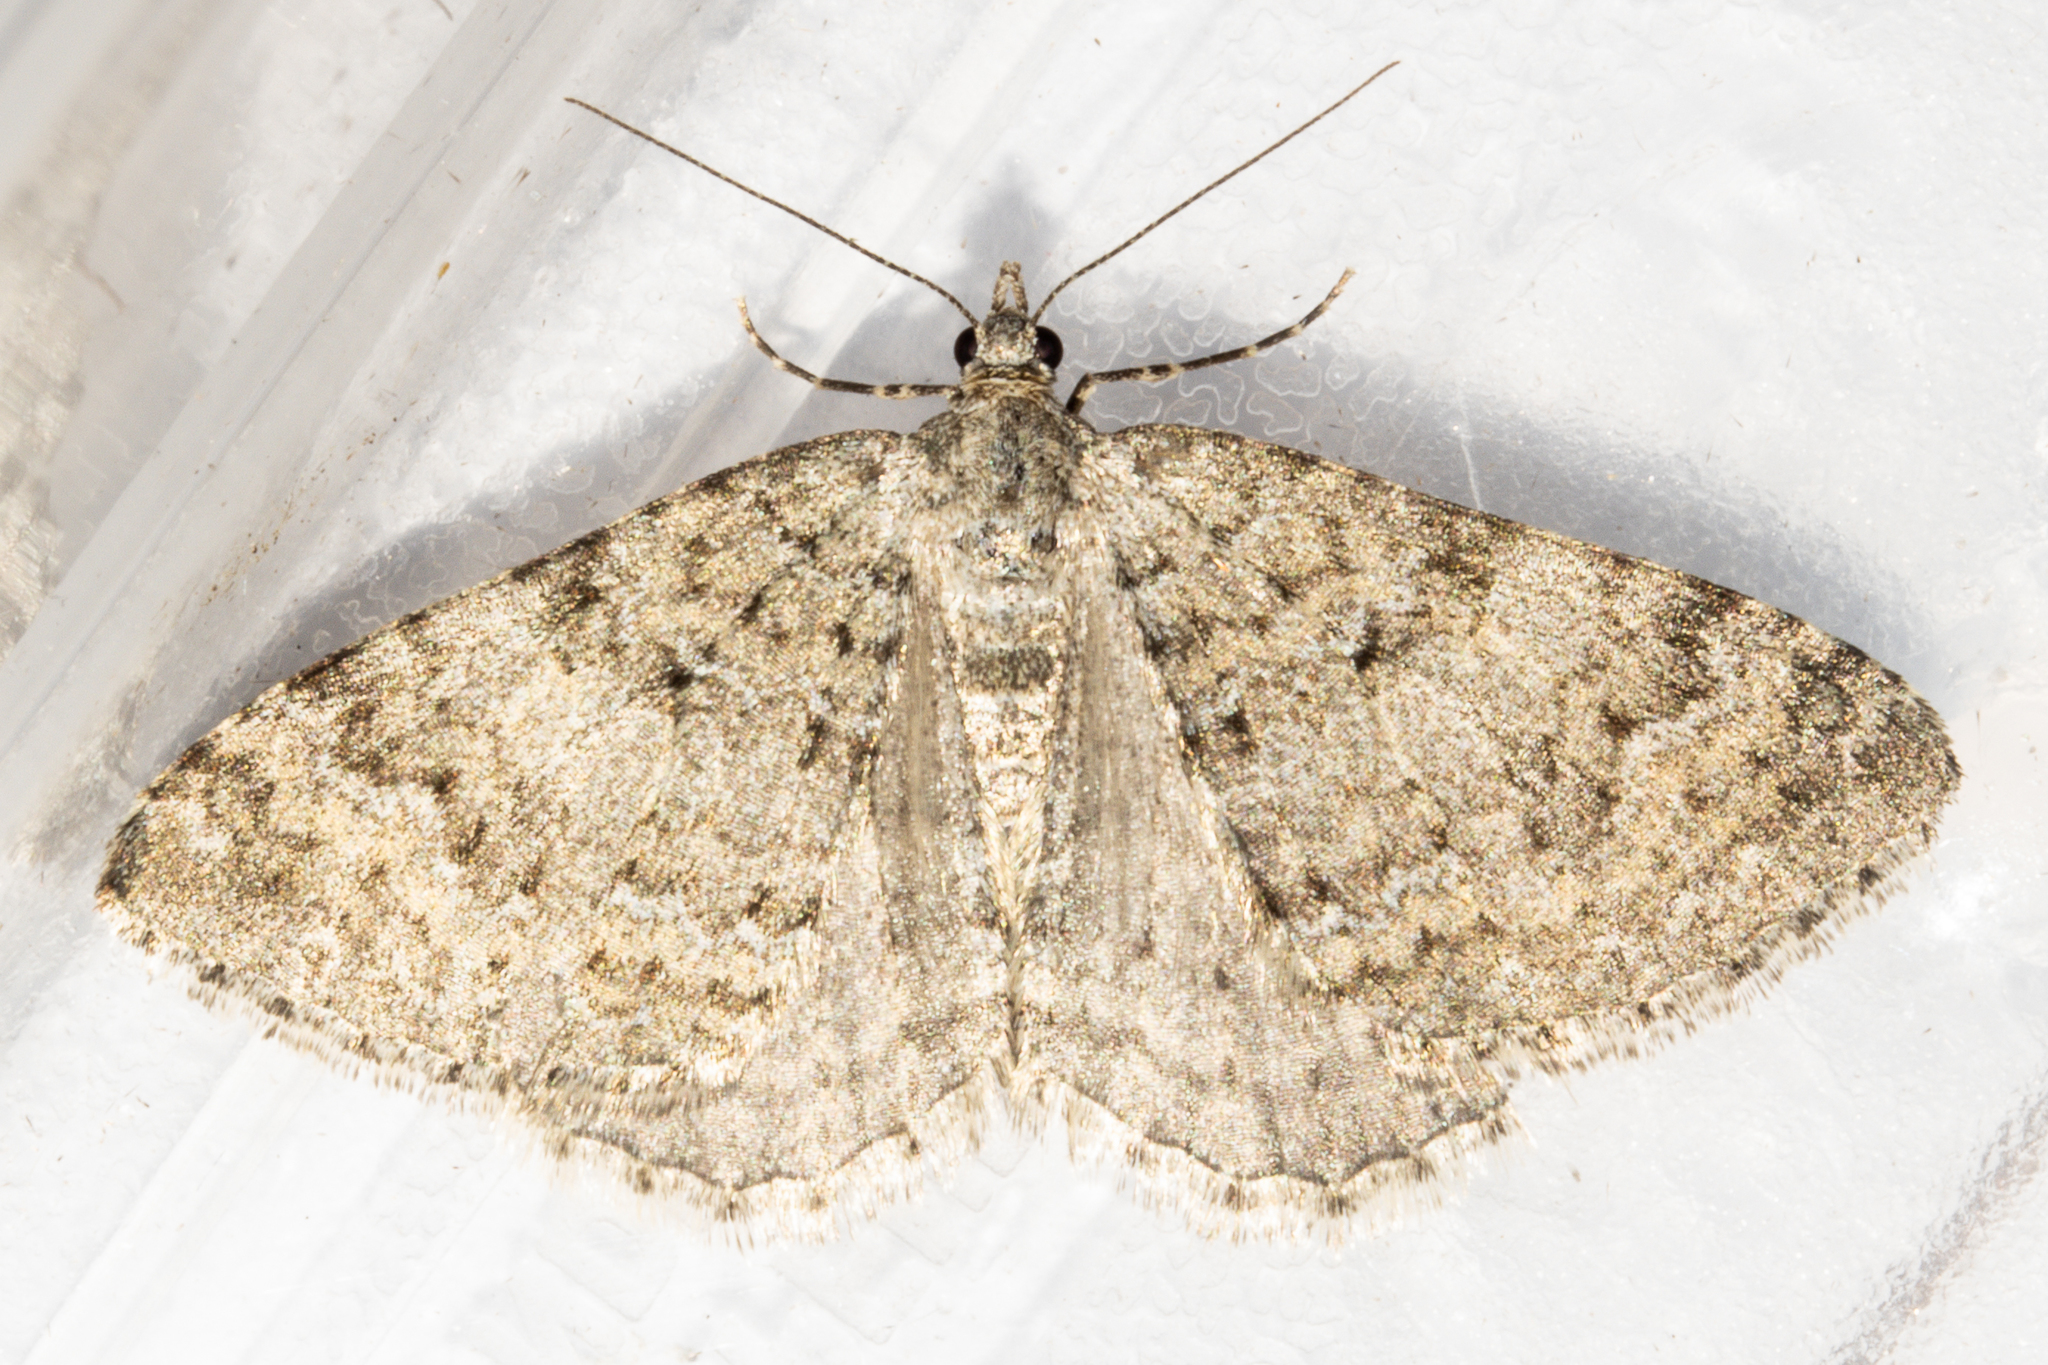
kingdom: Animalia
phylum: Arthropoda
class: Insecta
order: Lepidoptera
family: Geometridae
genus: Helastia
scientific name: Helastia corcularia
